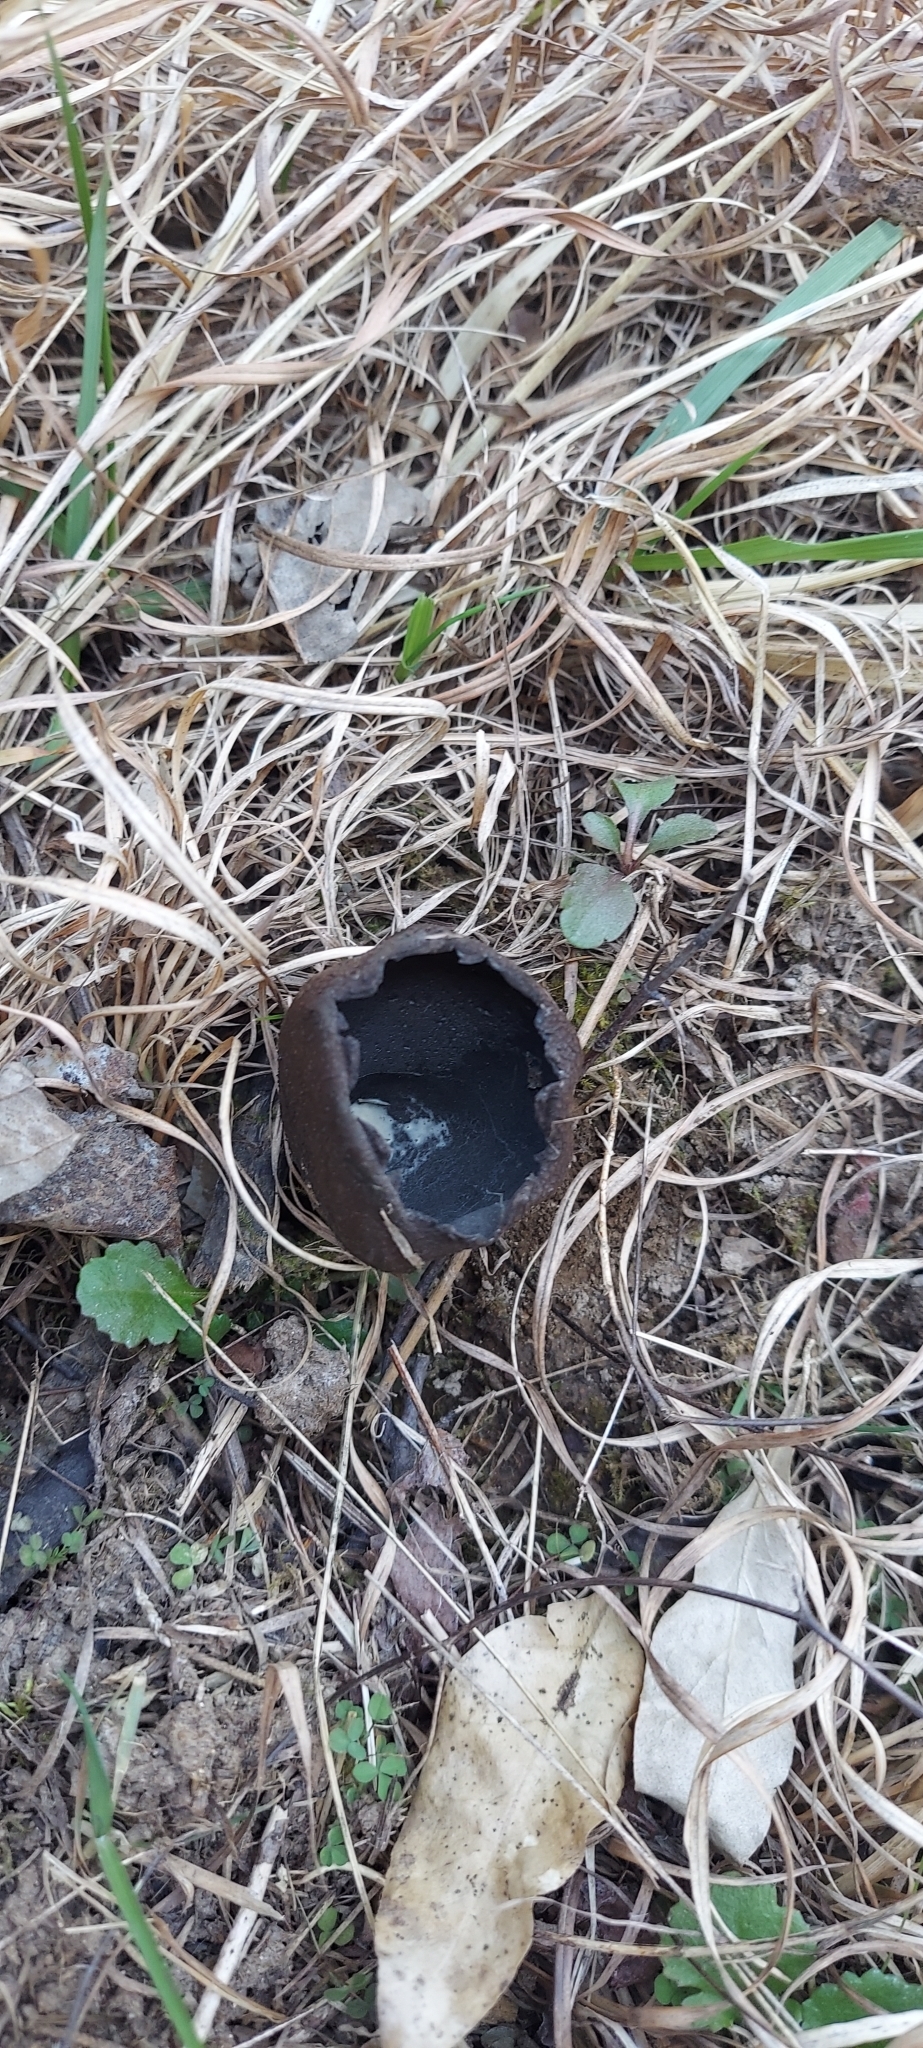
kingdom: Fungi
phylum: Ascomycota
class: Pezizomycetes
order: Pezizales
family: Sarcosomataceae
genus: Urnula
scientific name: Urnula craterium
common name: Devil's urn
